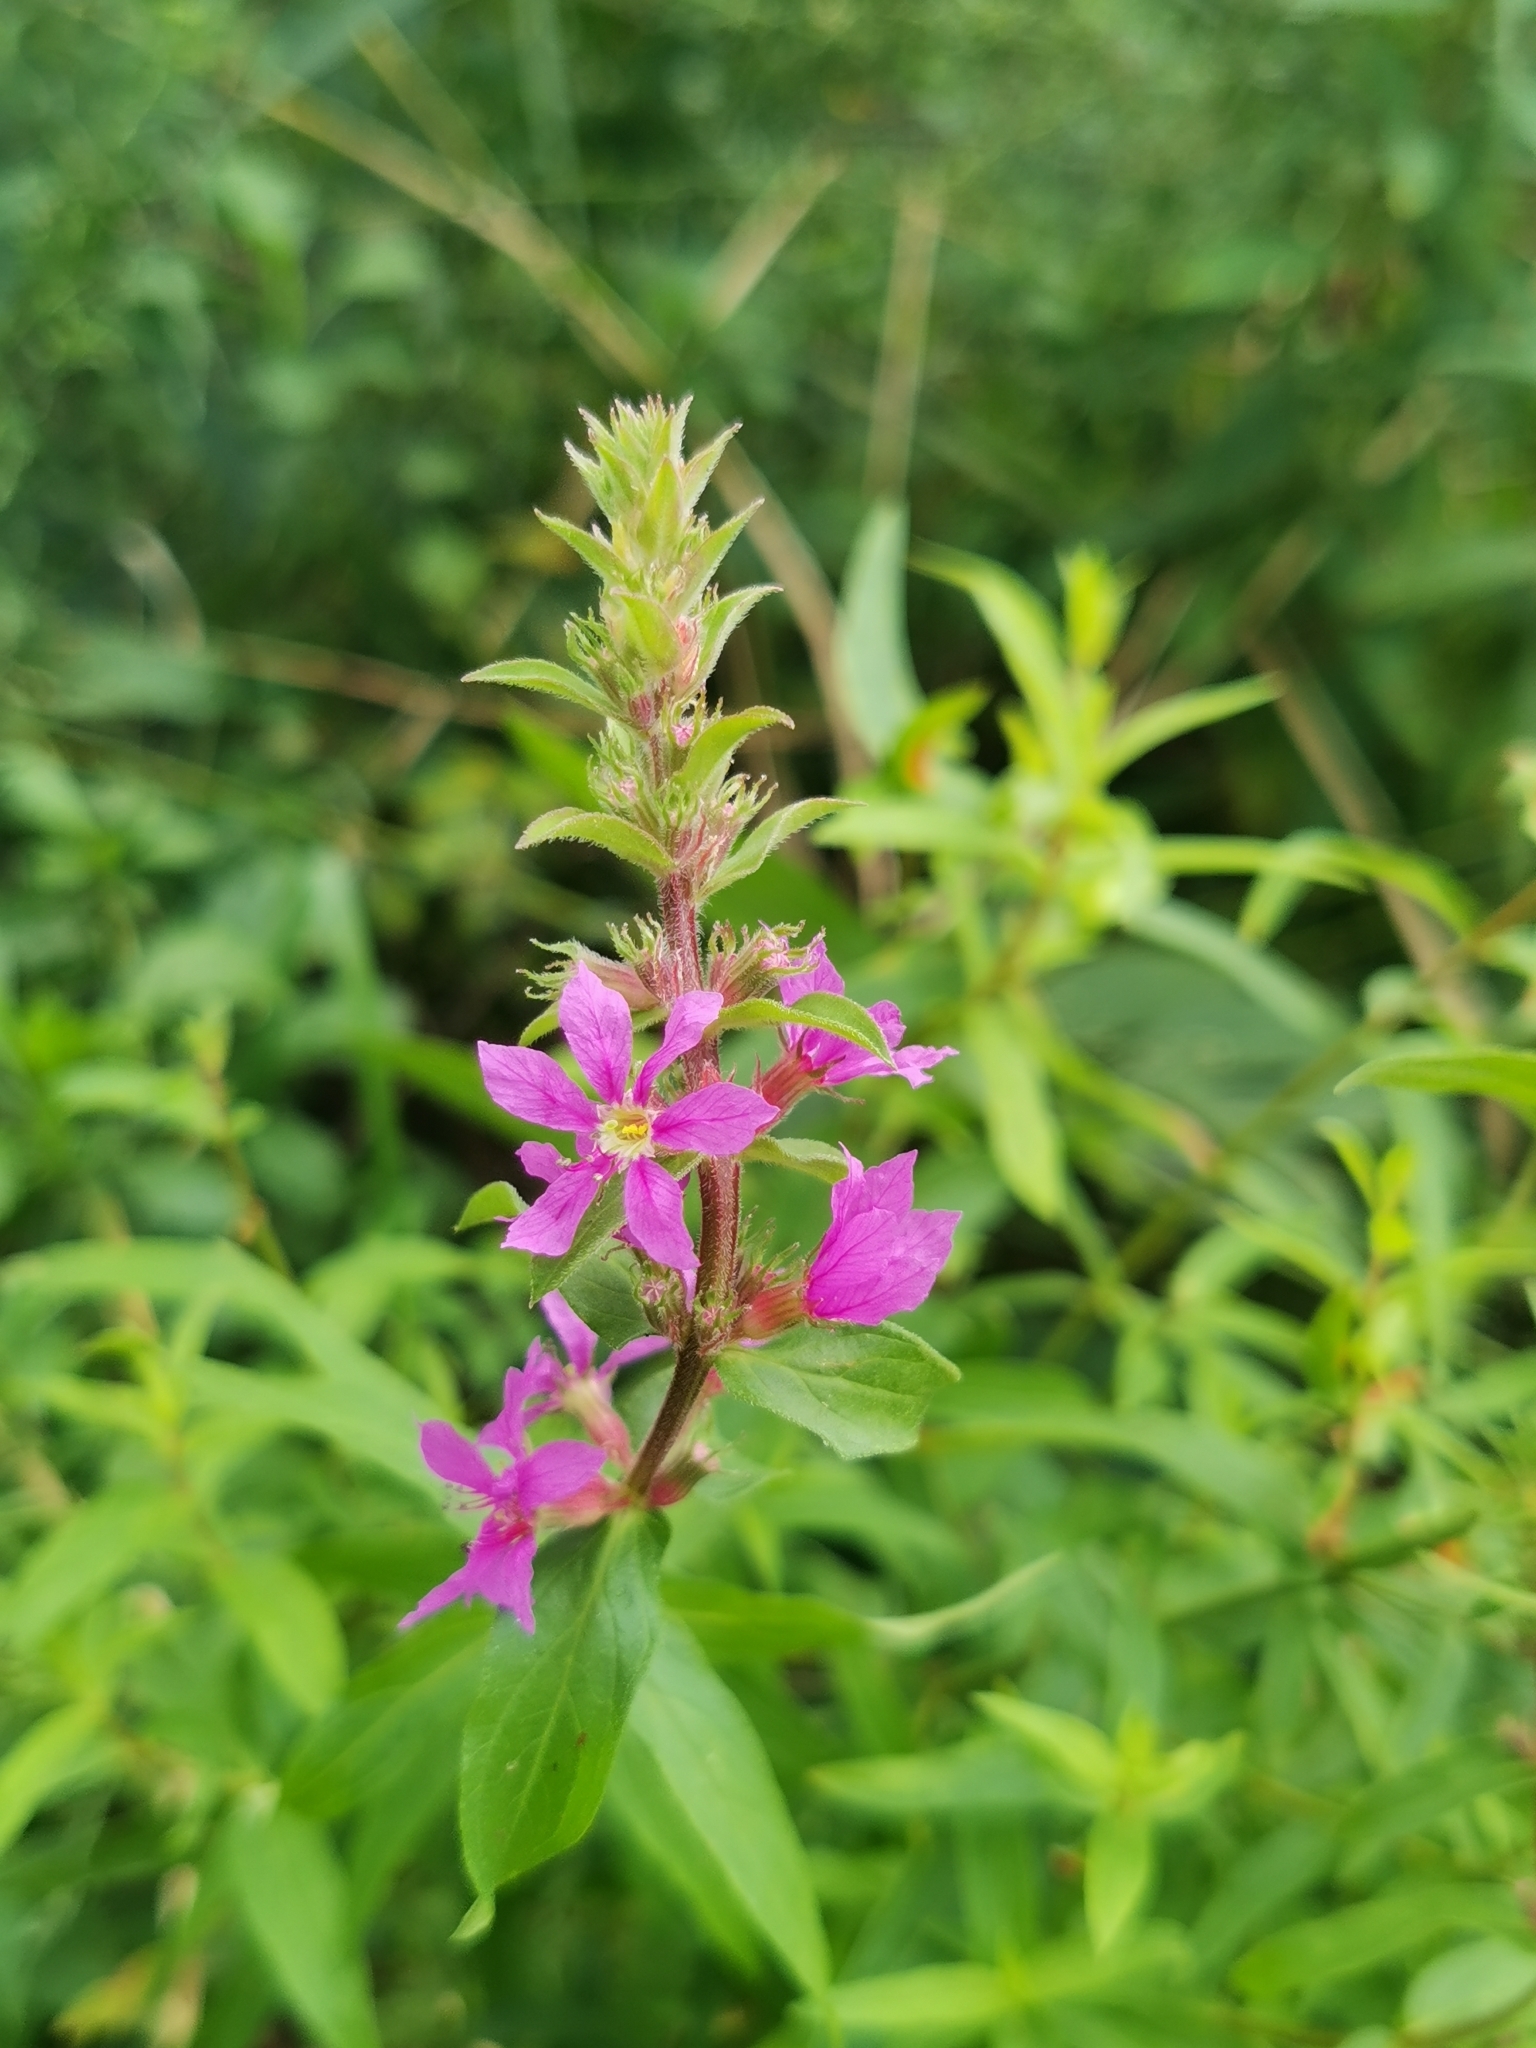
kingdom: Plantae
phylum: Tracheophyta
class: Magnoliopsida
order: Myrtales
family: Lythraceae
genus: Lythrum
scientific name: Lythrum salicaria
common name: Purple loosestrife
